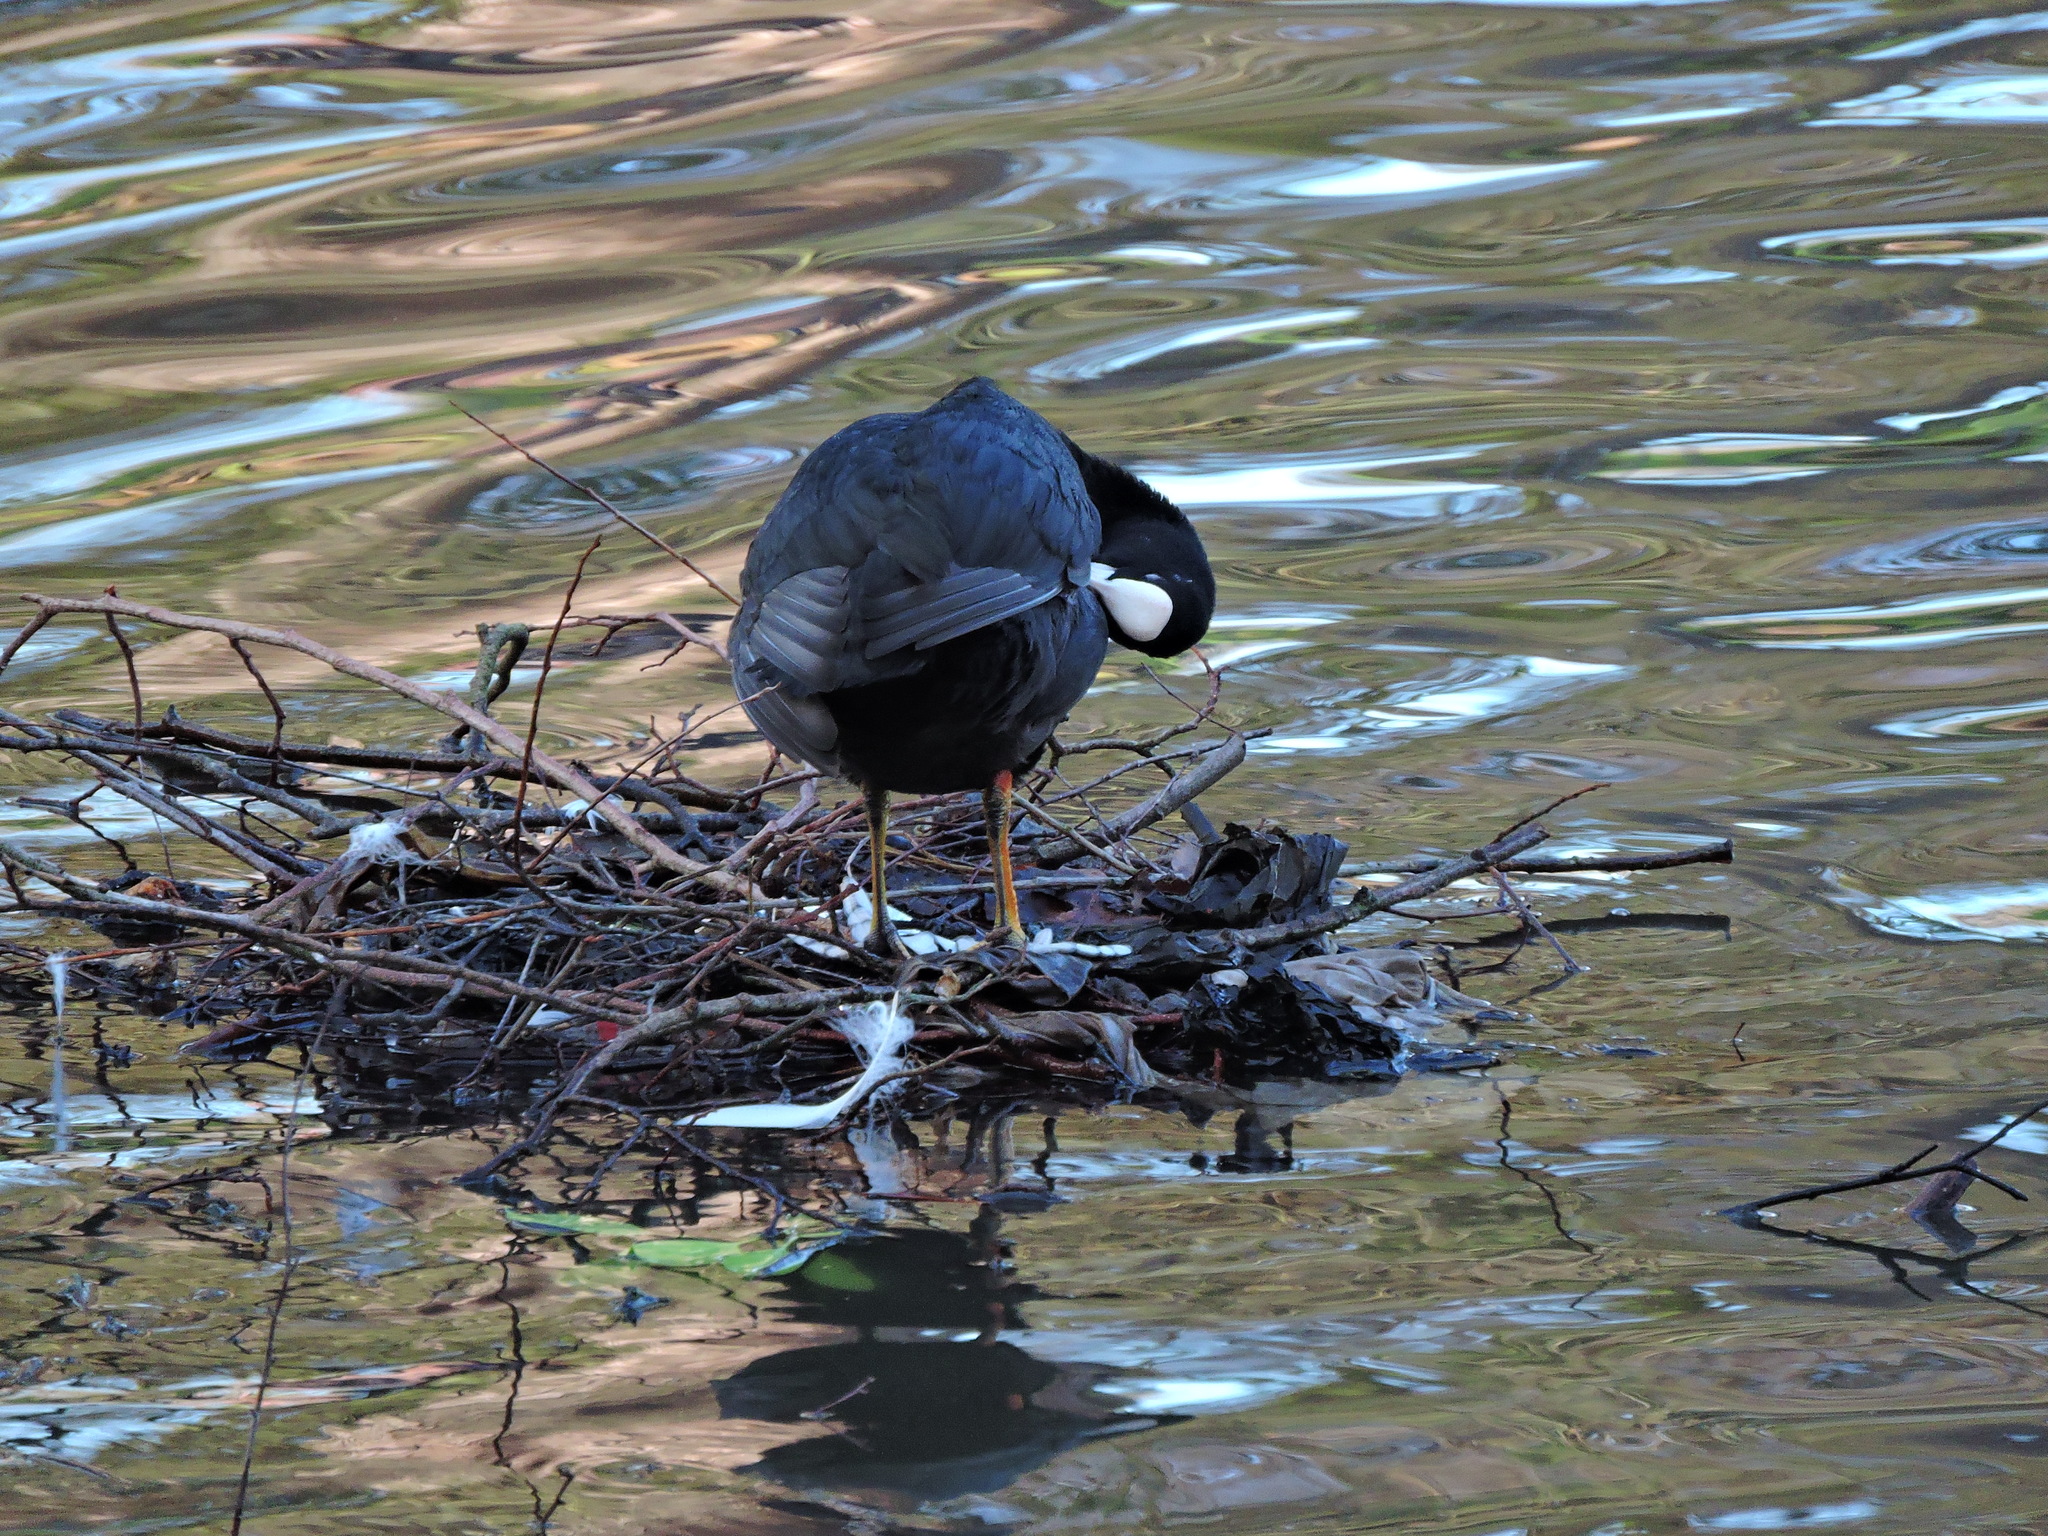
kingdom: Animalia
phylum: Chordata
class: Aves
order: Gruiformes
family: Rallidae
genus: Fulica
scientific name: Fulica atra
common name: Eurasian coot
